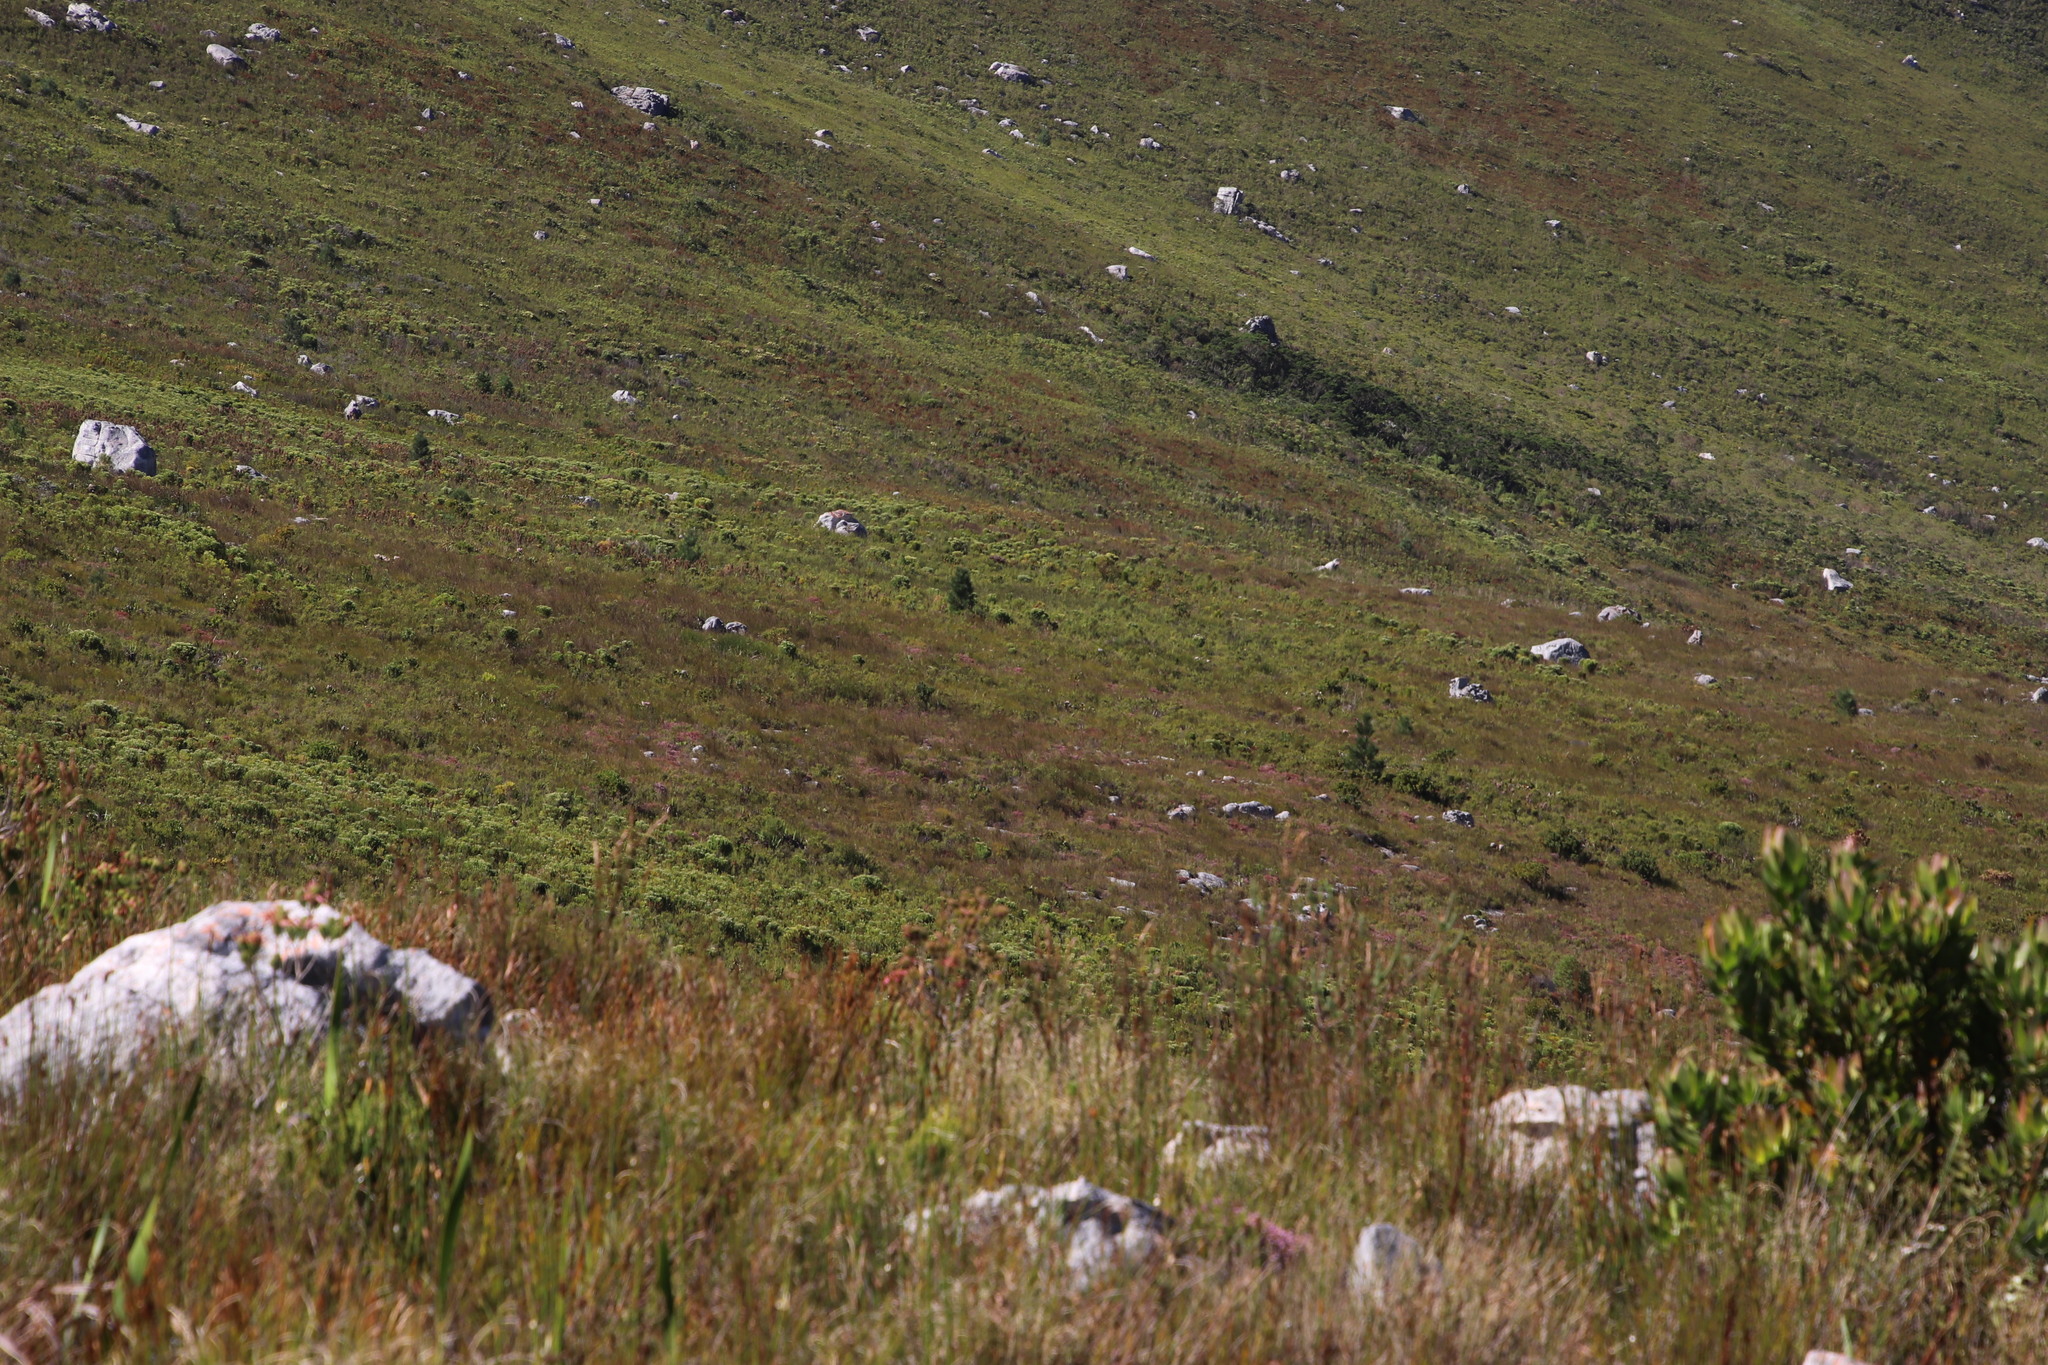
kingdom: Plantae
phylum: Tracheophyta
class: Pinopsida
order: Pinales
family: Pinaceae
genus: Pinus
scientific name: Pinus radiata
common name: Monterey pine
